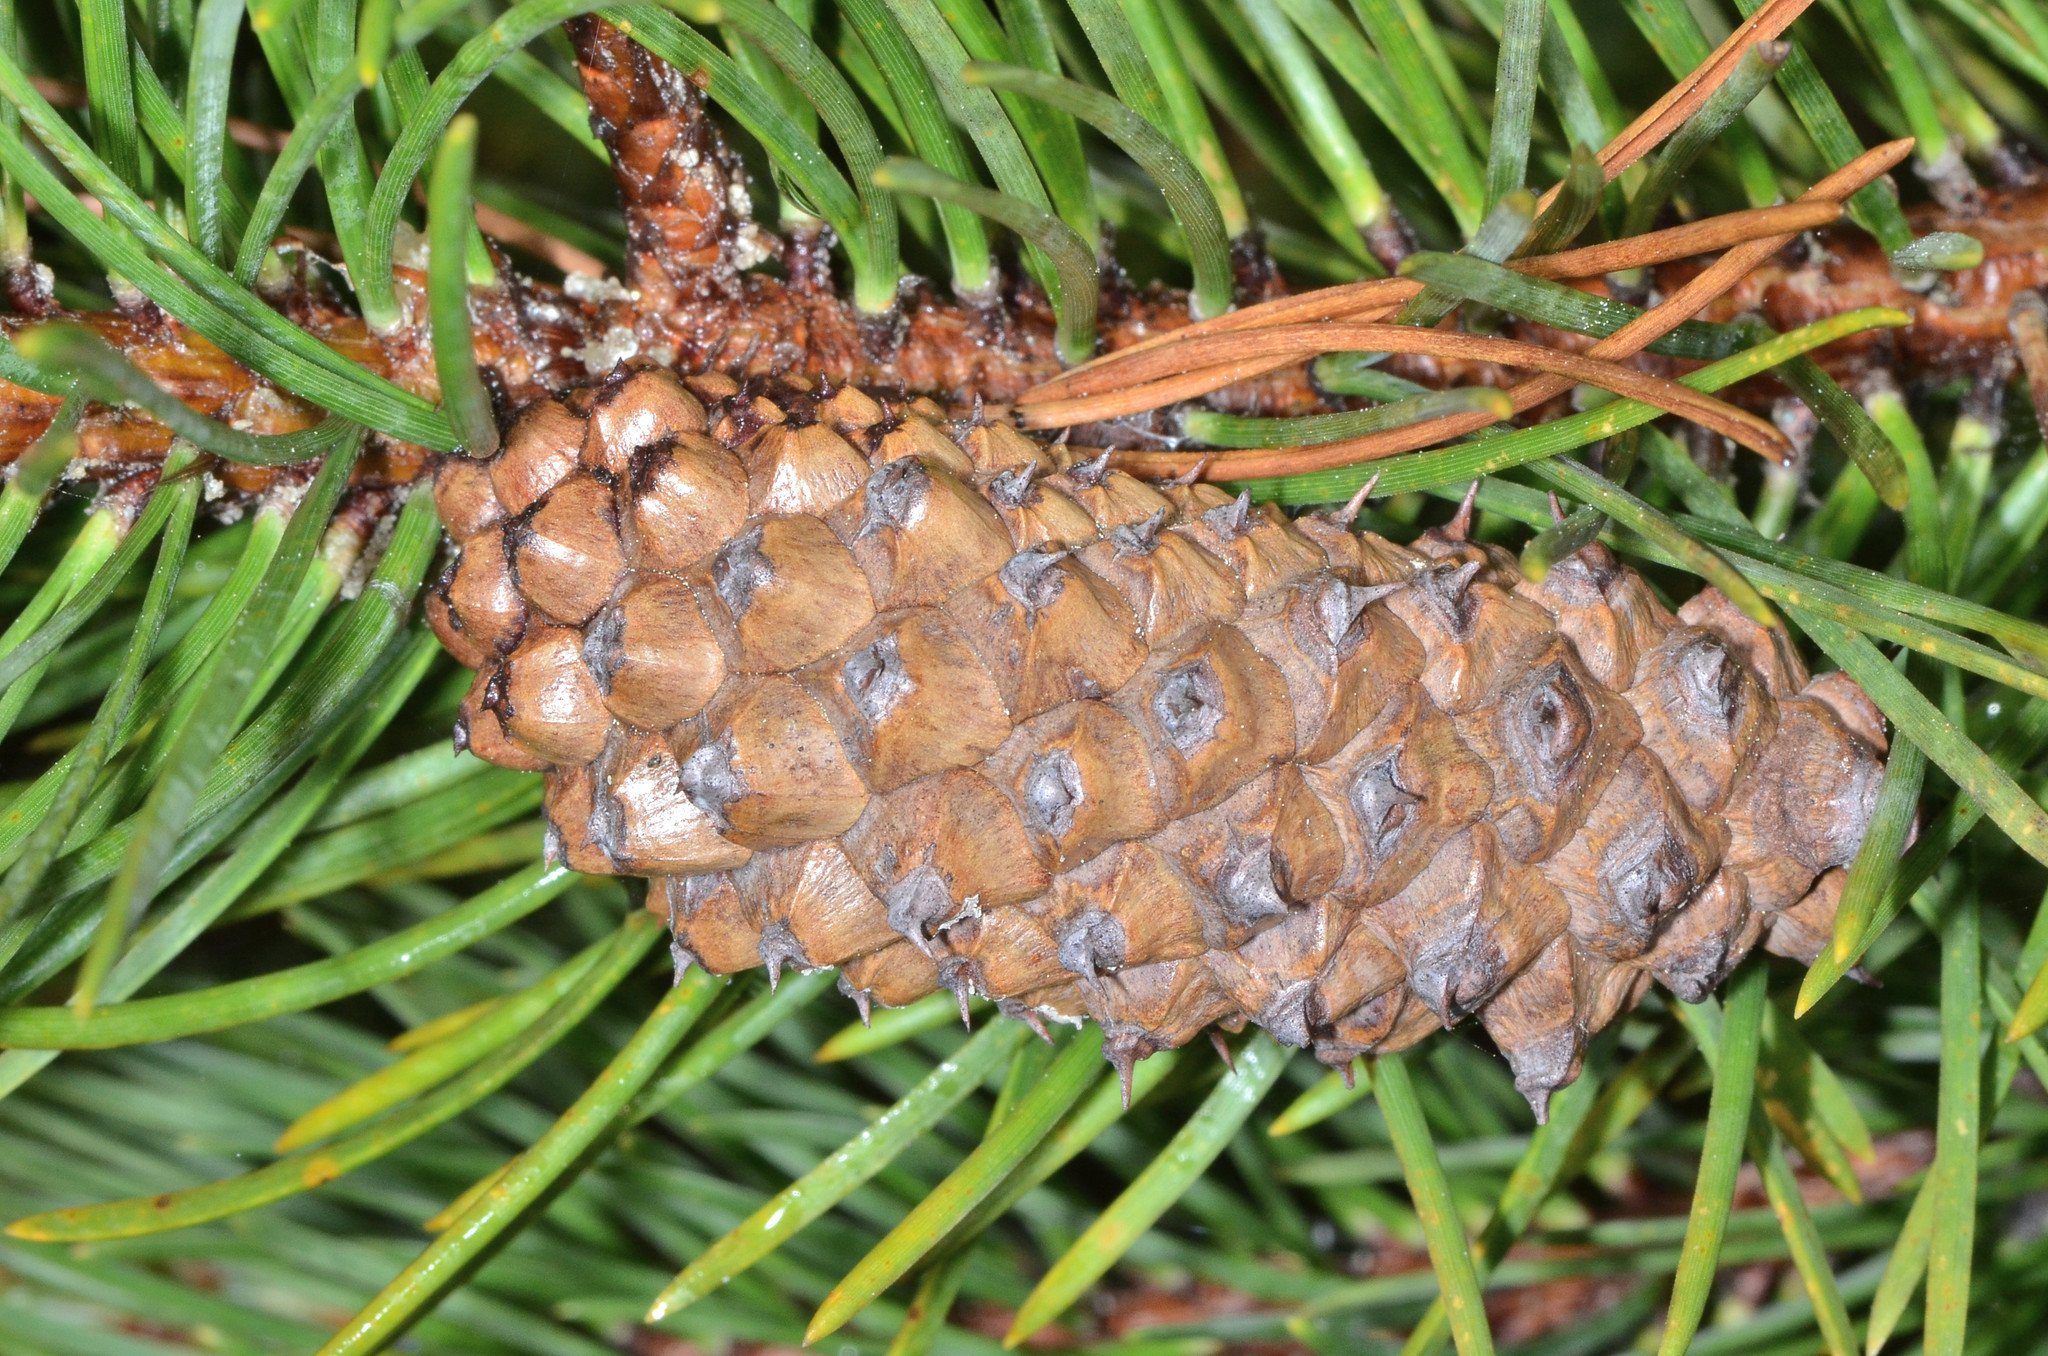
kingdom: Plantae
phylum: Tracheophyta
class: Pinopsida
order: Pinales
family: Pinaceae
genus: Pinus
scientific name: Pinus contorta
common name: Lodgepole pine
